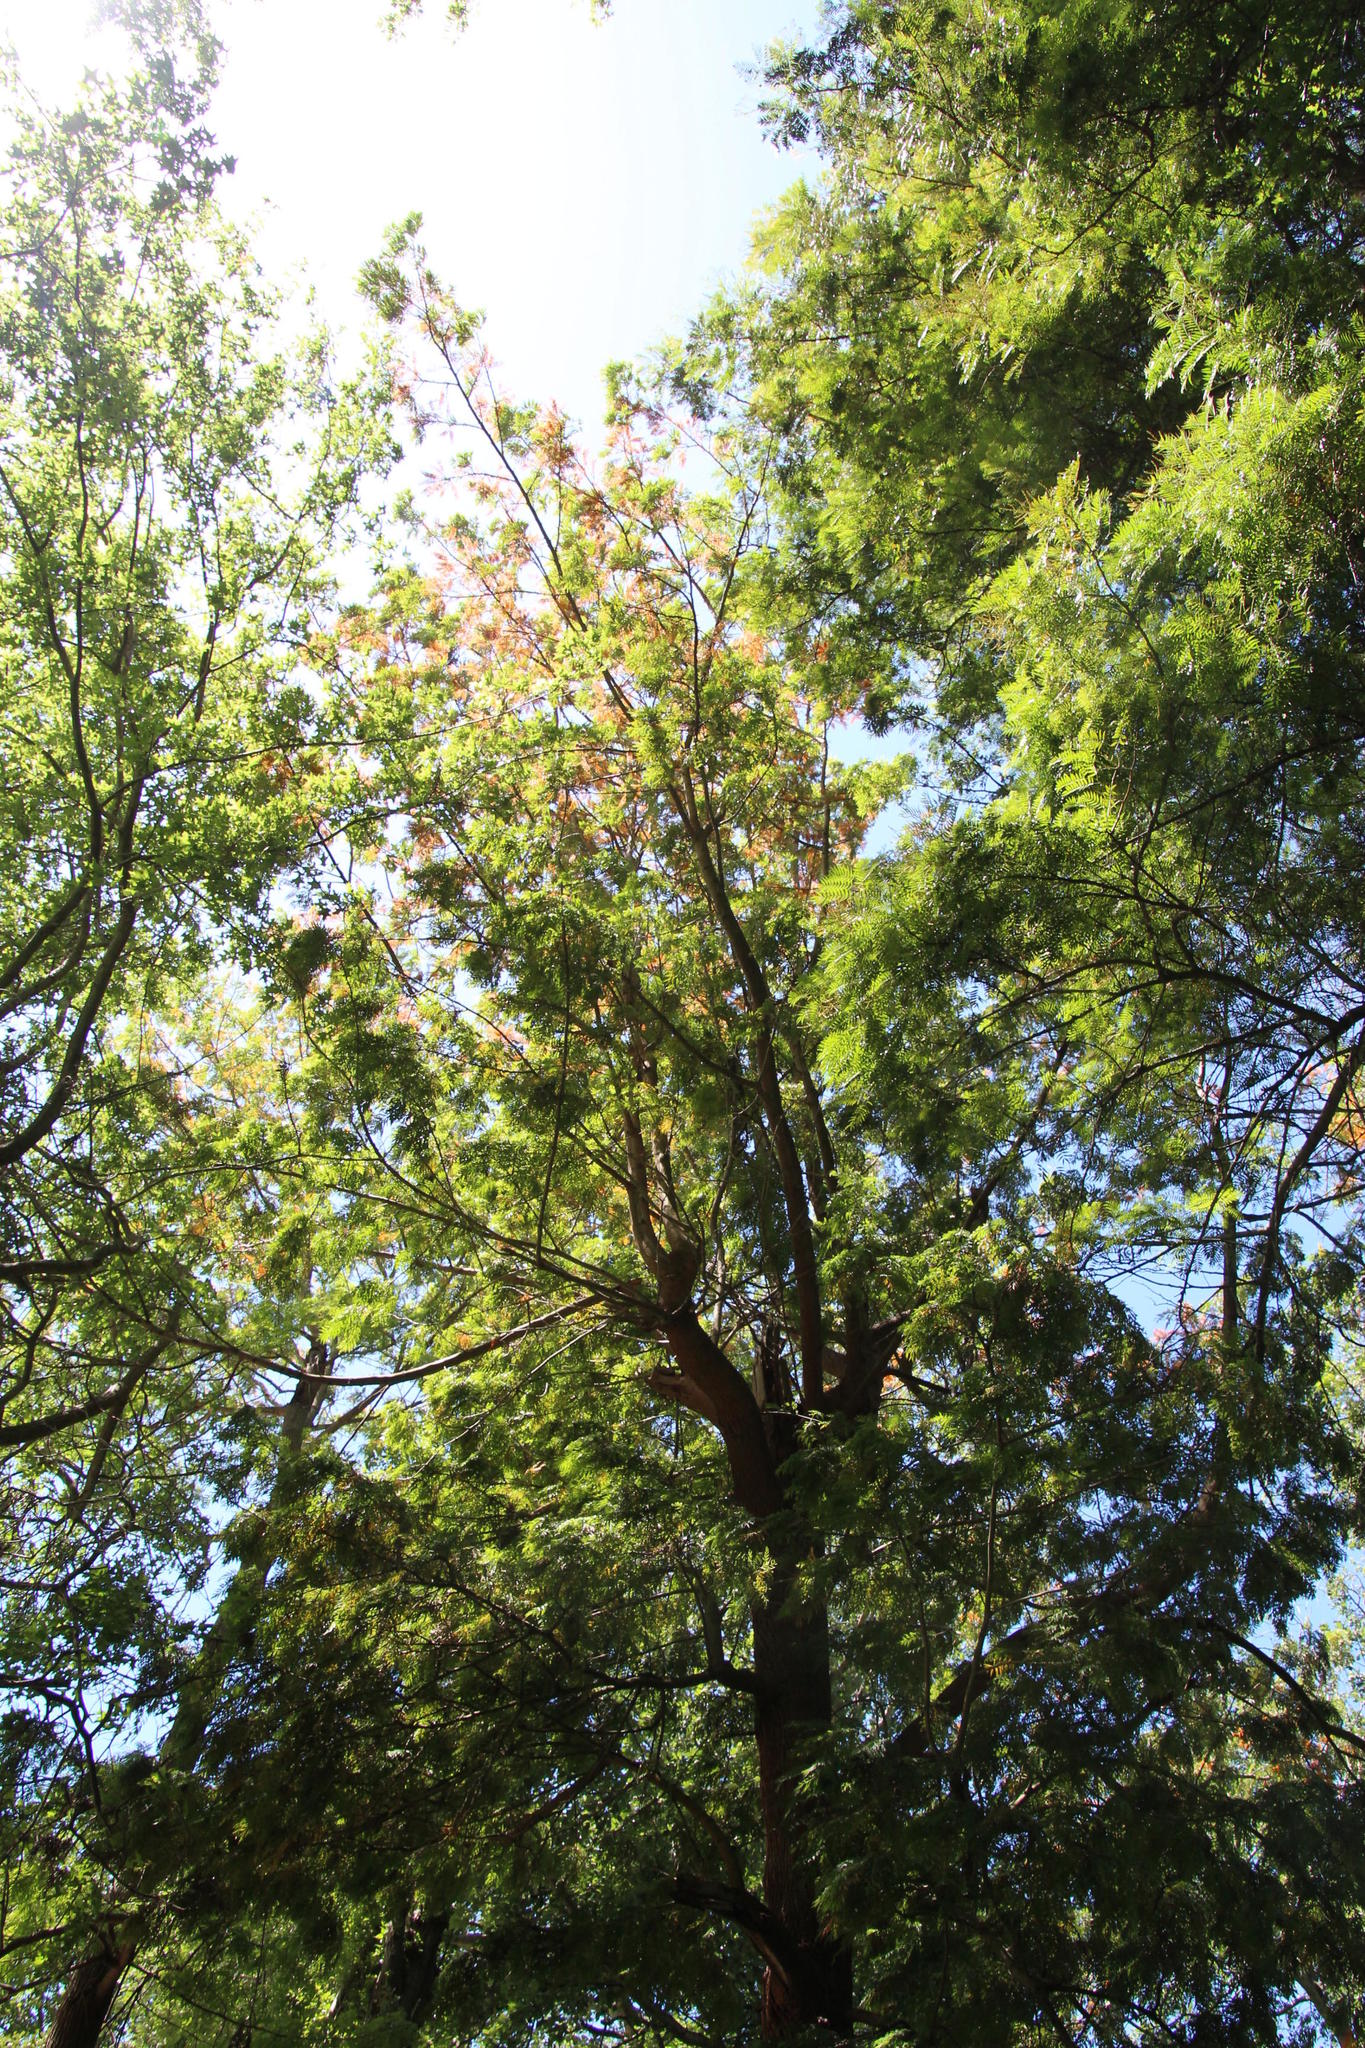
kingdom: Plantae
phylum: Tracheophyta
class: Magnoliopsida
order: Proteales
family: Proteaceae
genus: Grevillea
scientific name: Grevillea robusta
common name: Silkoak
